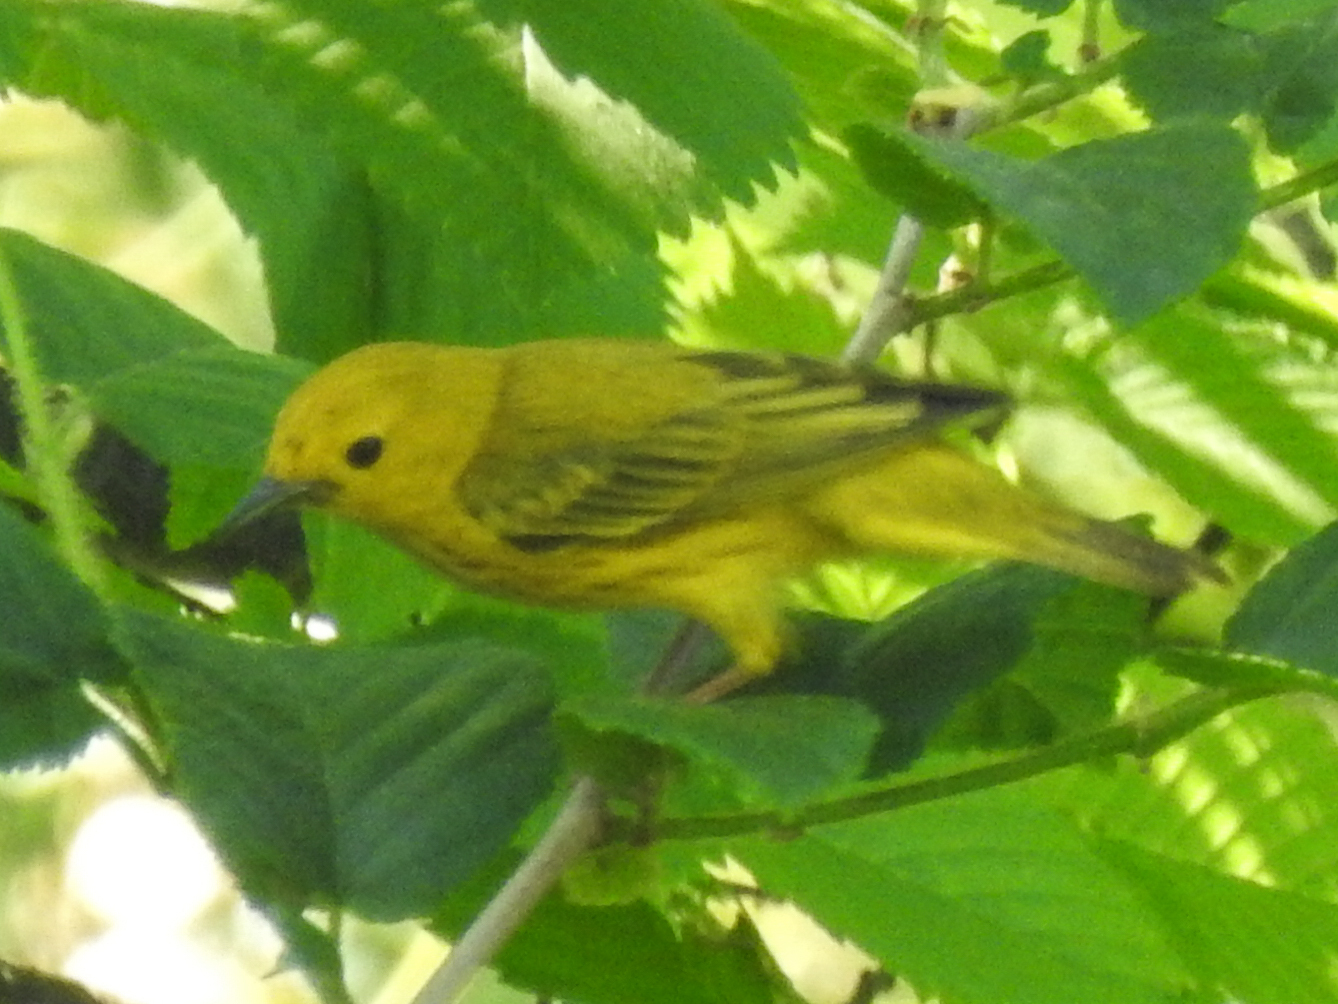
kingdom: Animalia
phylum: Chordata
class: Aves
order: Passeriformes
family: Parulidae
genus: Setophaga
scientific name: Setophaga petechia
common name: Yellow warbler
